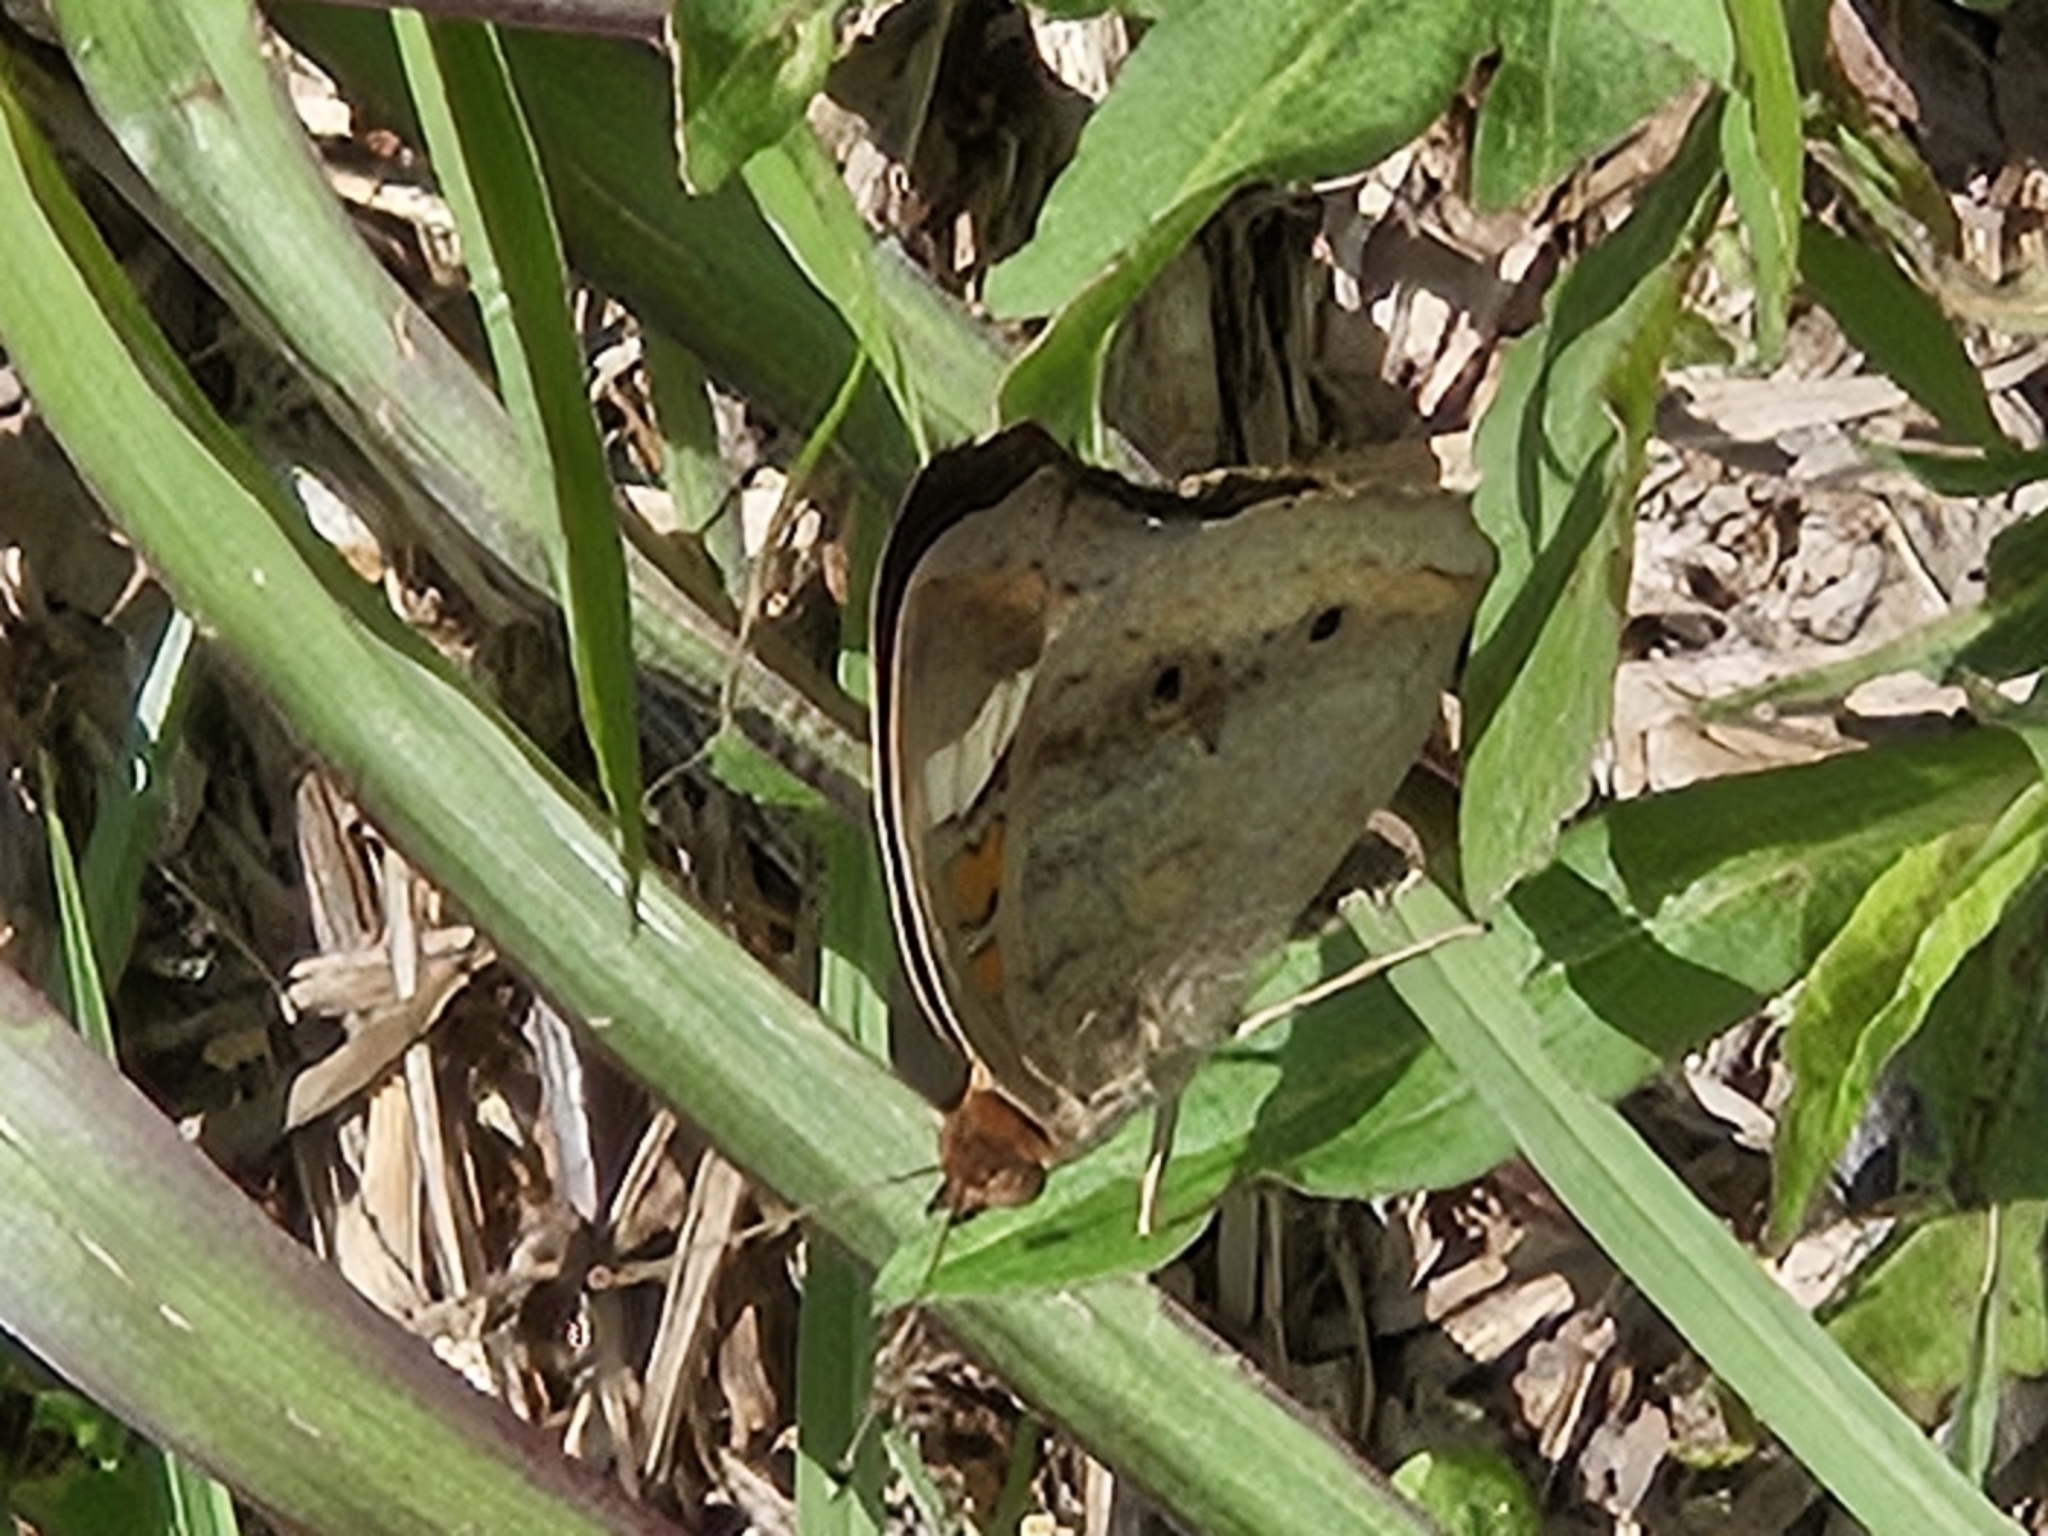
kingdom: Animalia
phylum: Arthropoda
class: Insecta
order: Lepidoptera
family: Nymphalidae
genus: Junonia
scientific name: Junonia coenia
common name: Common buckeye
